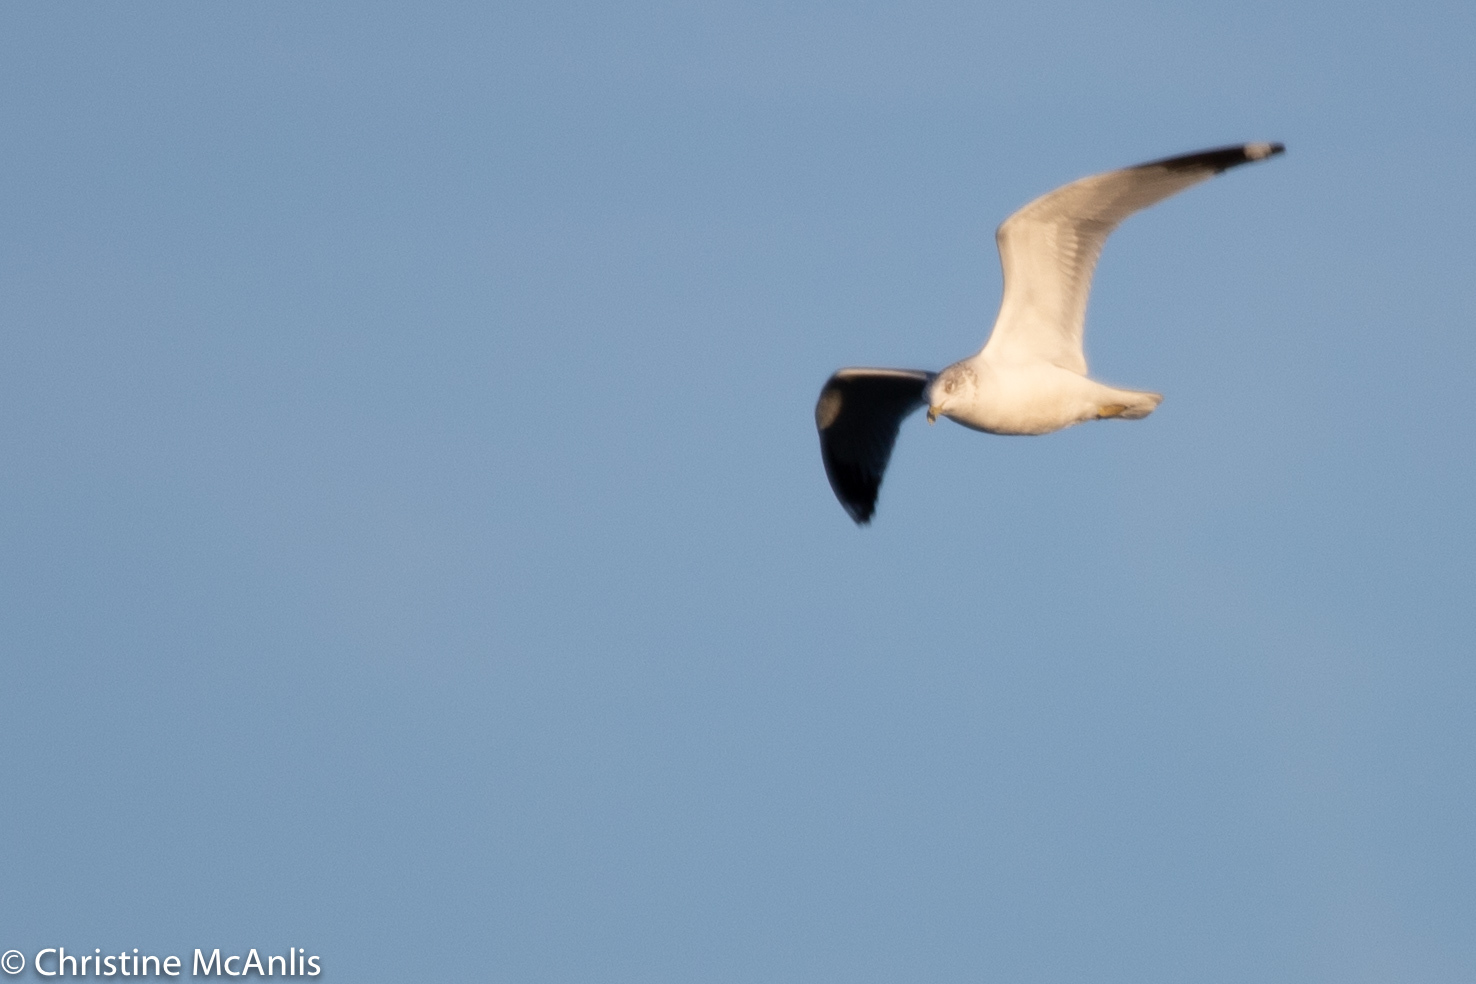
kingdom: Animalia
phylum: Chordata
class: Aves
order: Charadriiformes
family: Laridae
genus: Larus
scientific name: Larus delawarensis
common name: Ring-billed gull
